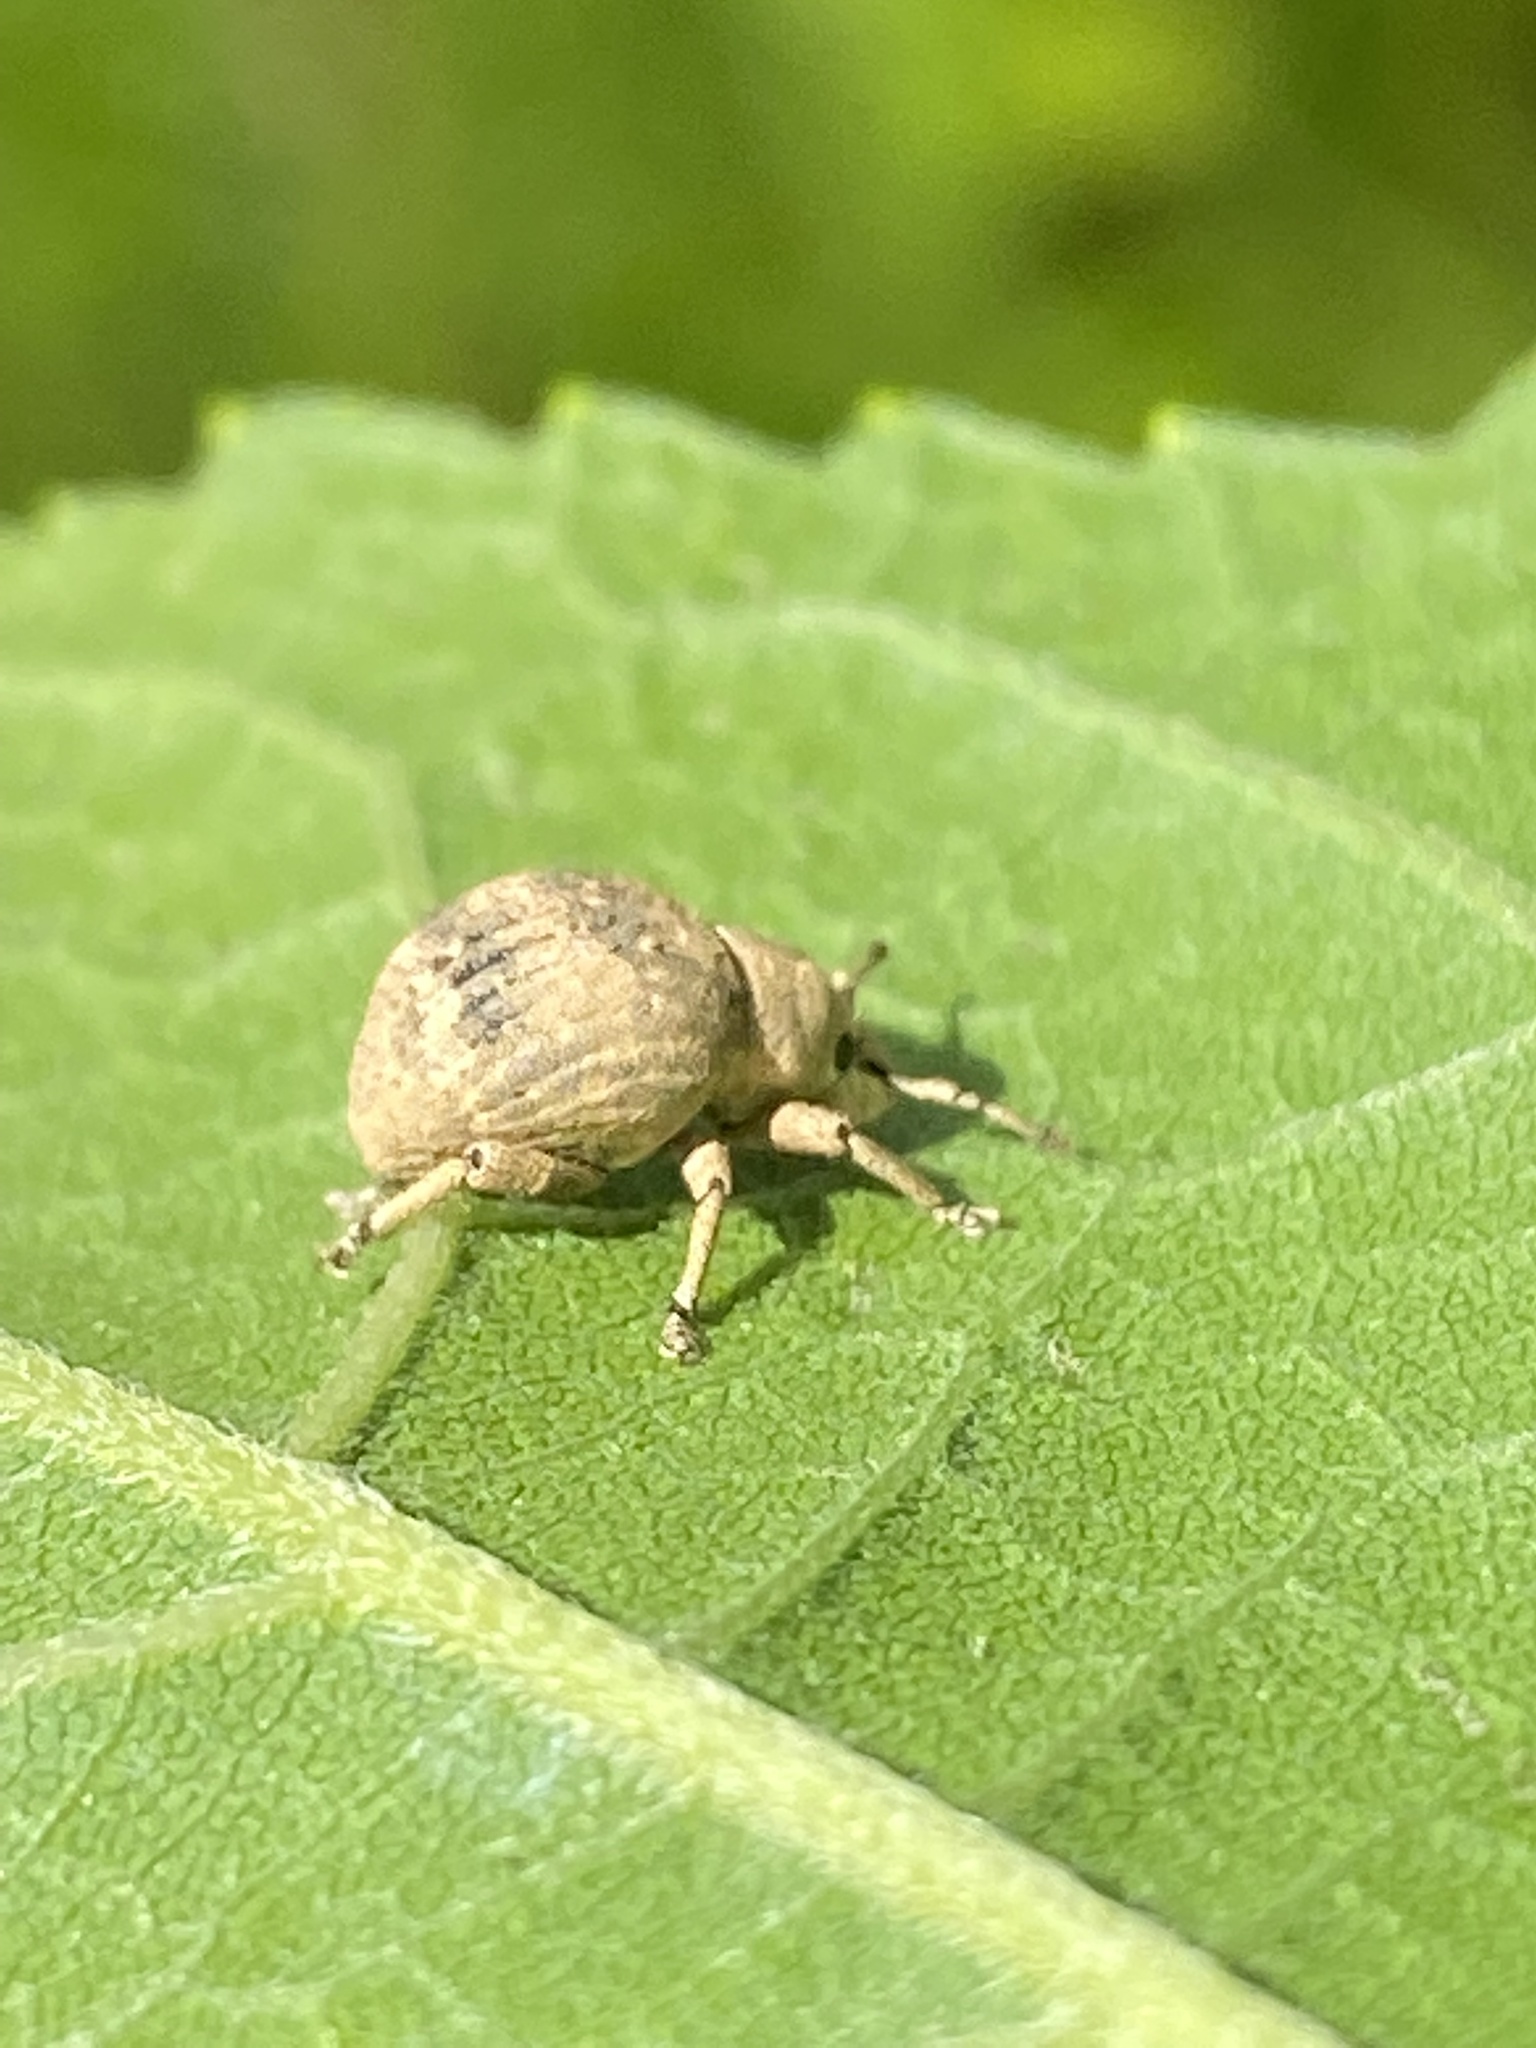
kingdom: Animalia
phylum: Arthropoda
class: Insecta
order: Coleoptera
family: Curculionidae
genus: Pseudocneorhinus
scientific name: Pseudocneorhinus bifasciatus
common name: Two-banded japanese weevil
